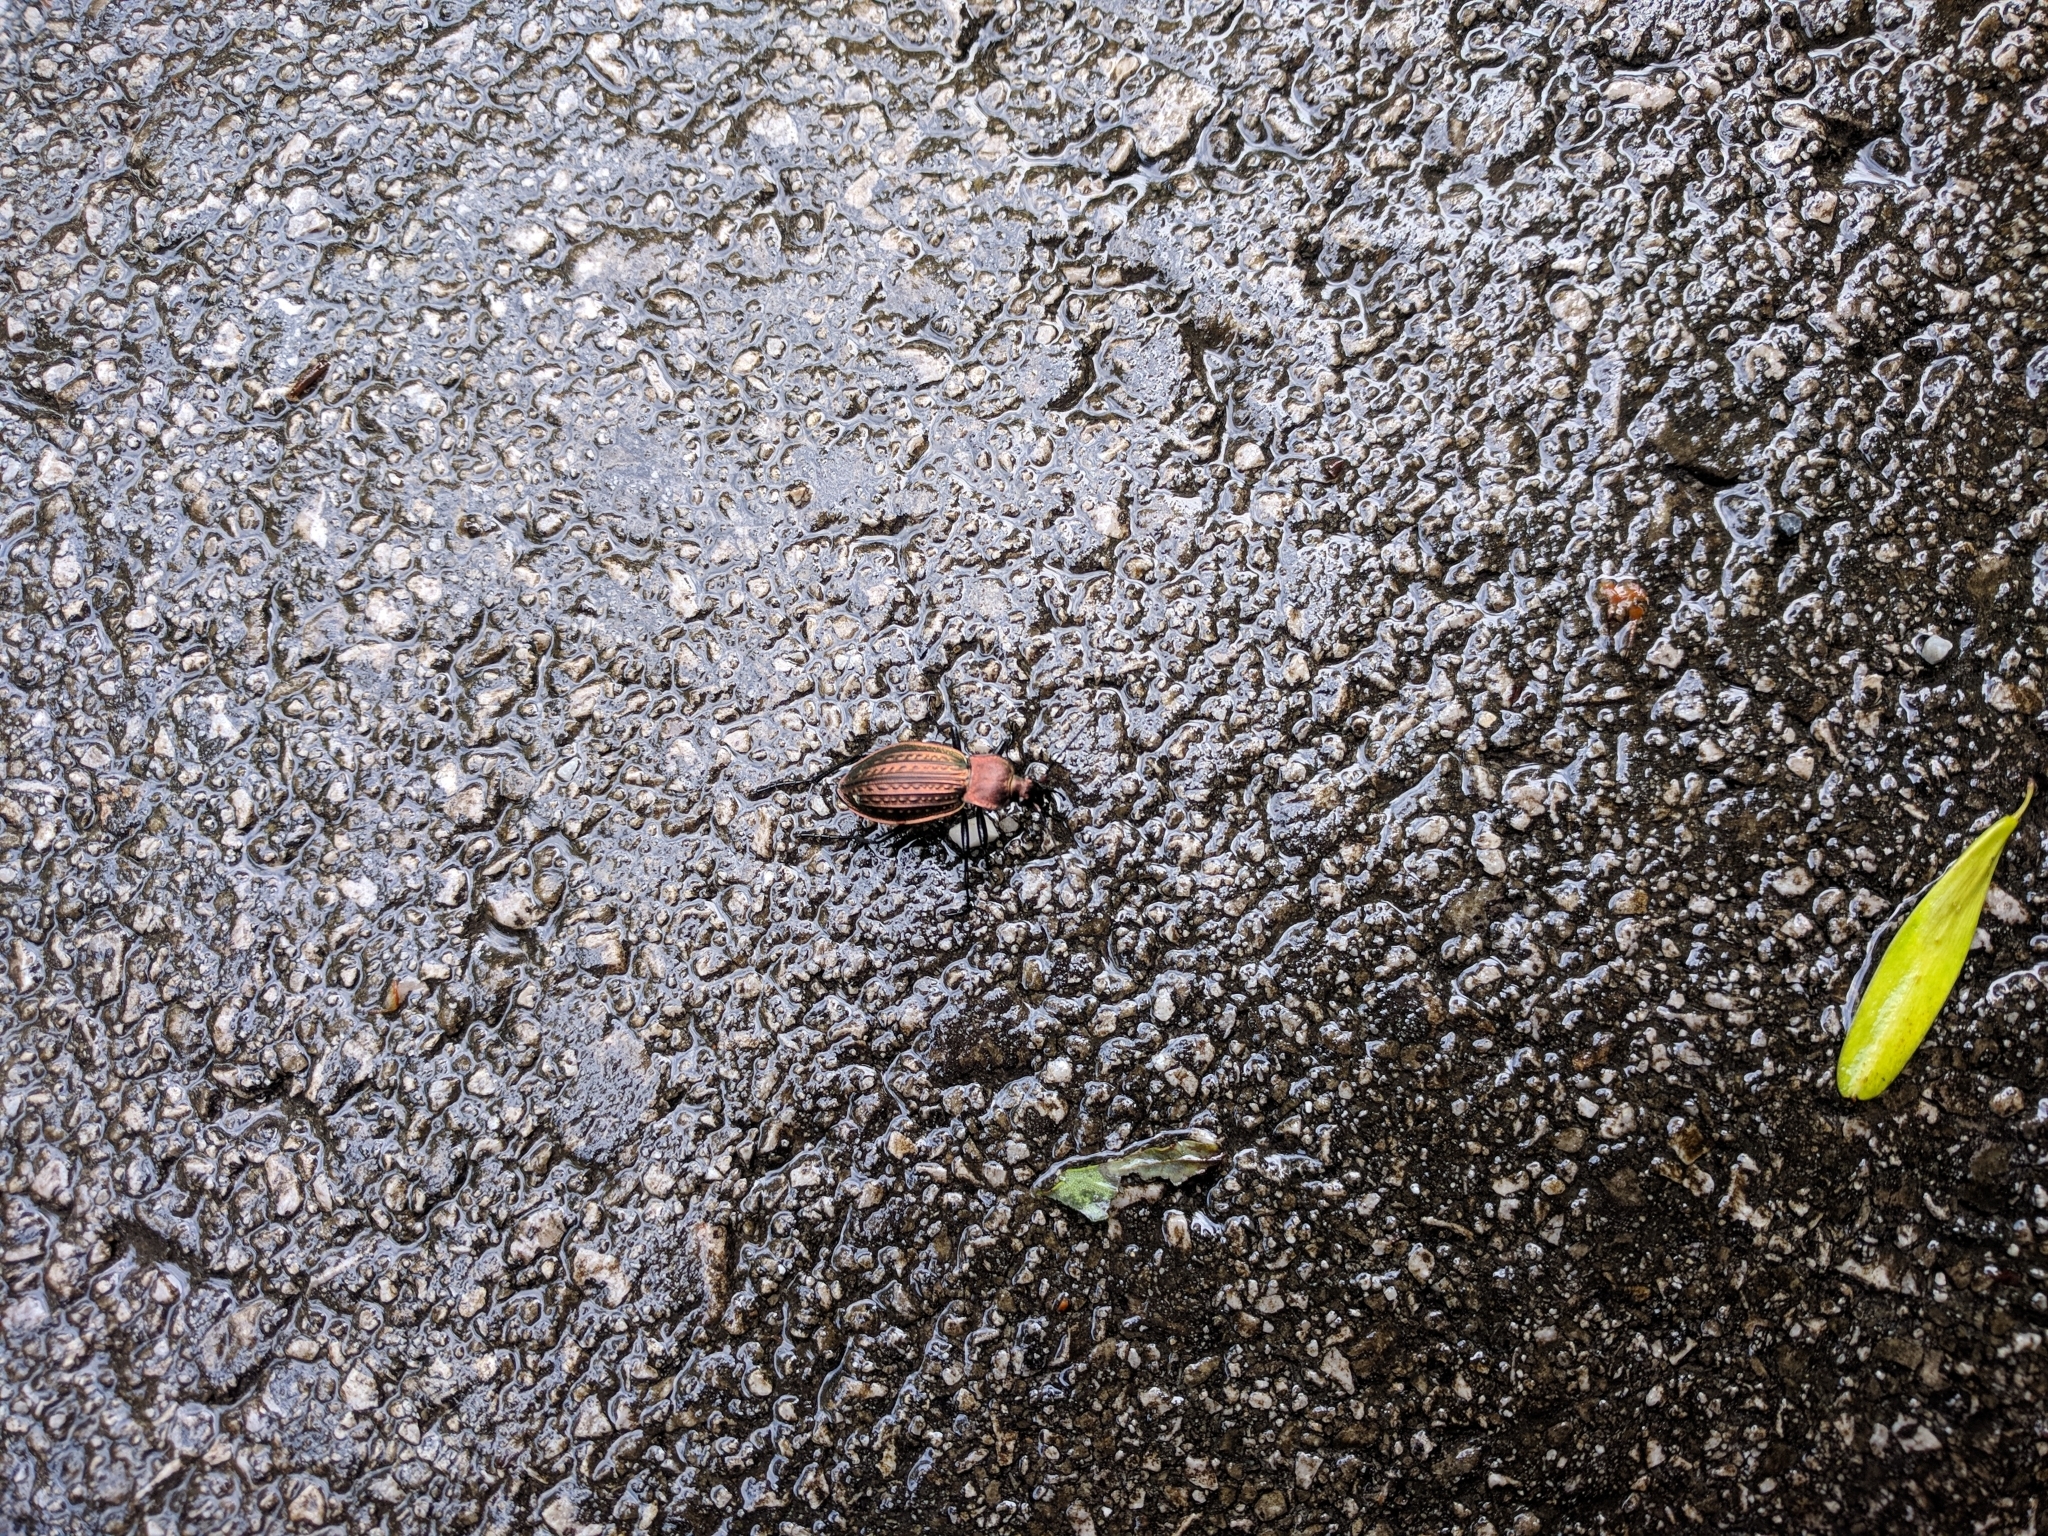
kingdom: Animalia
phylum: Arthropoda
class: Insecta
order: Coleoptera
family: Carabidae
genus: Carabus
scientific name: Carabus ulrichii
